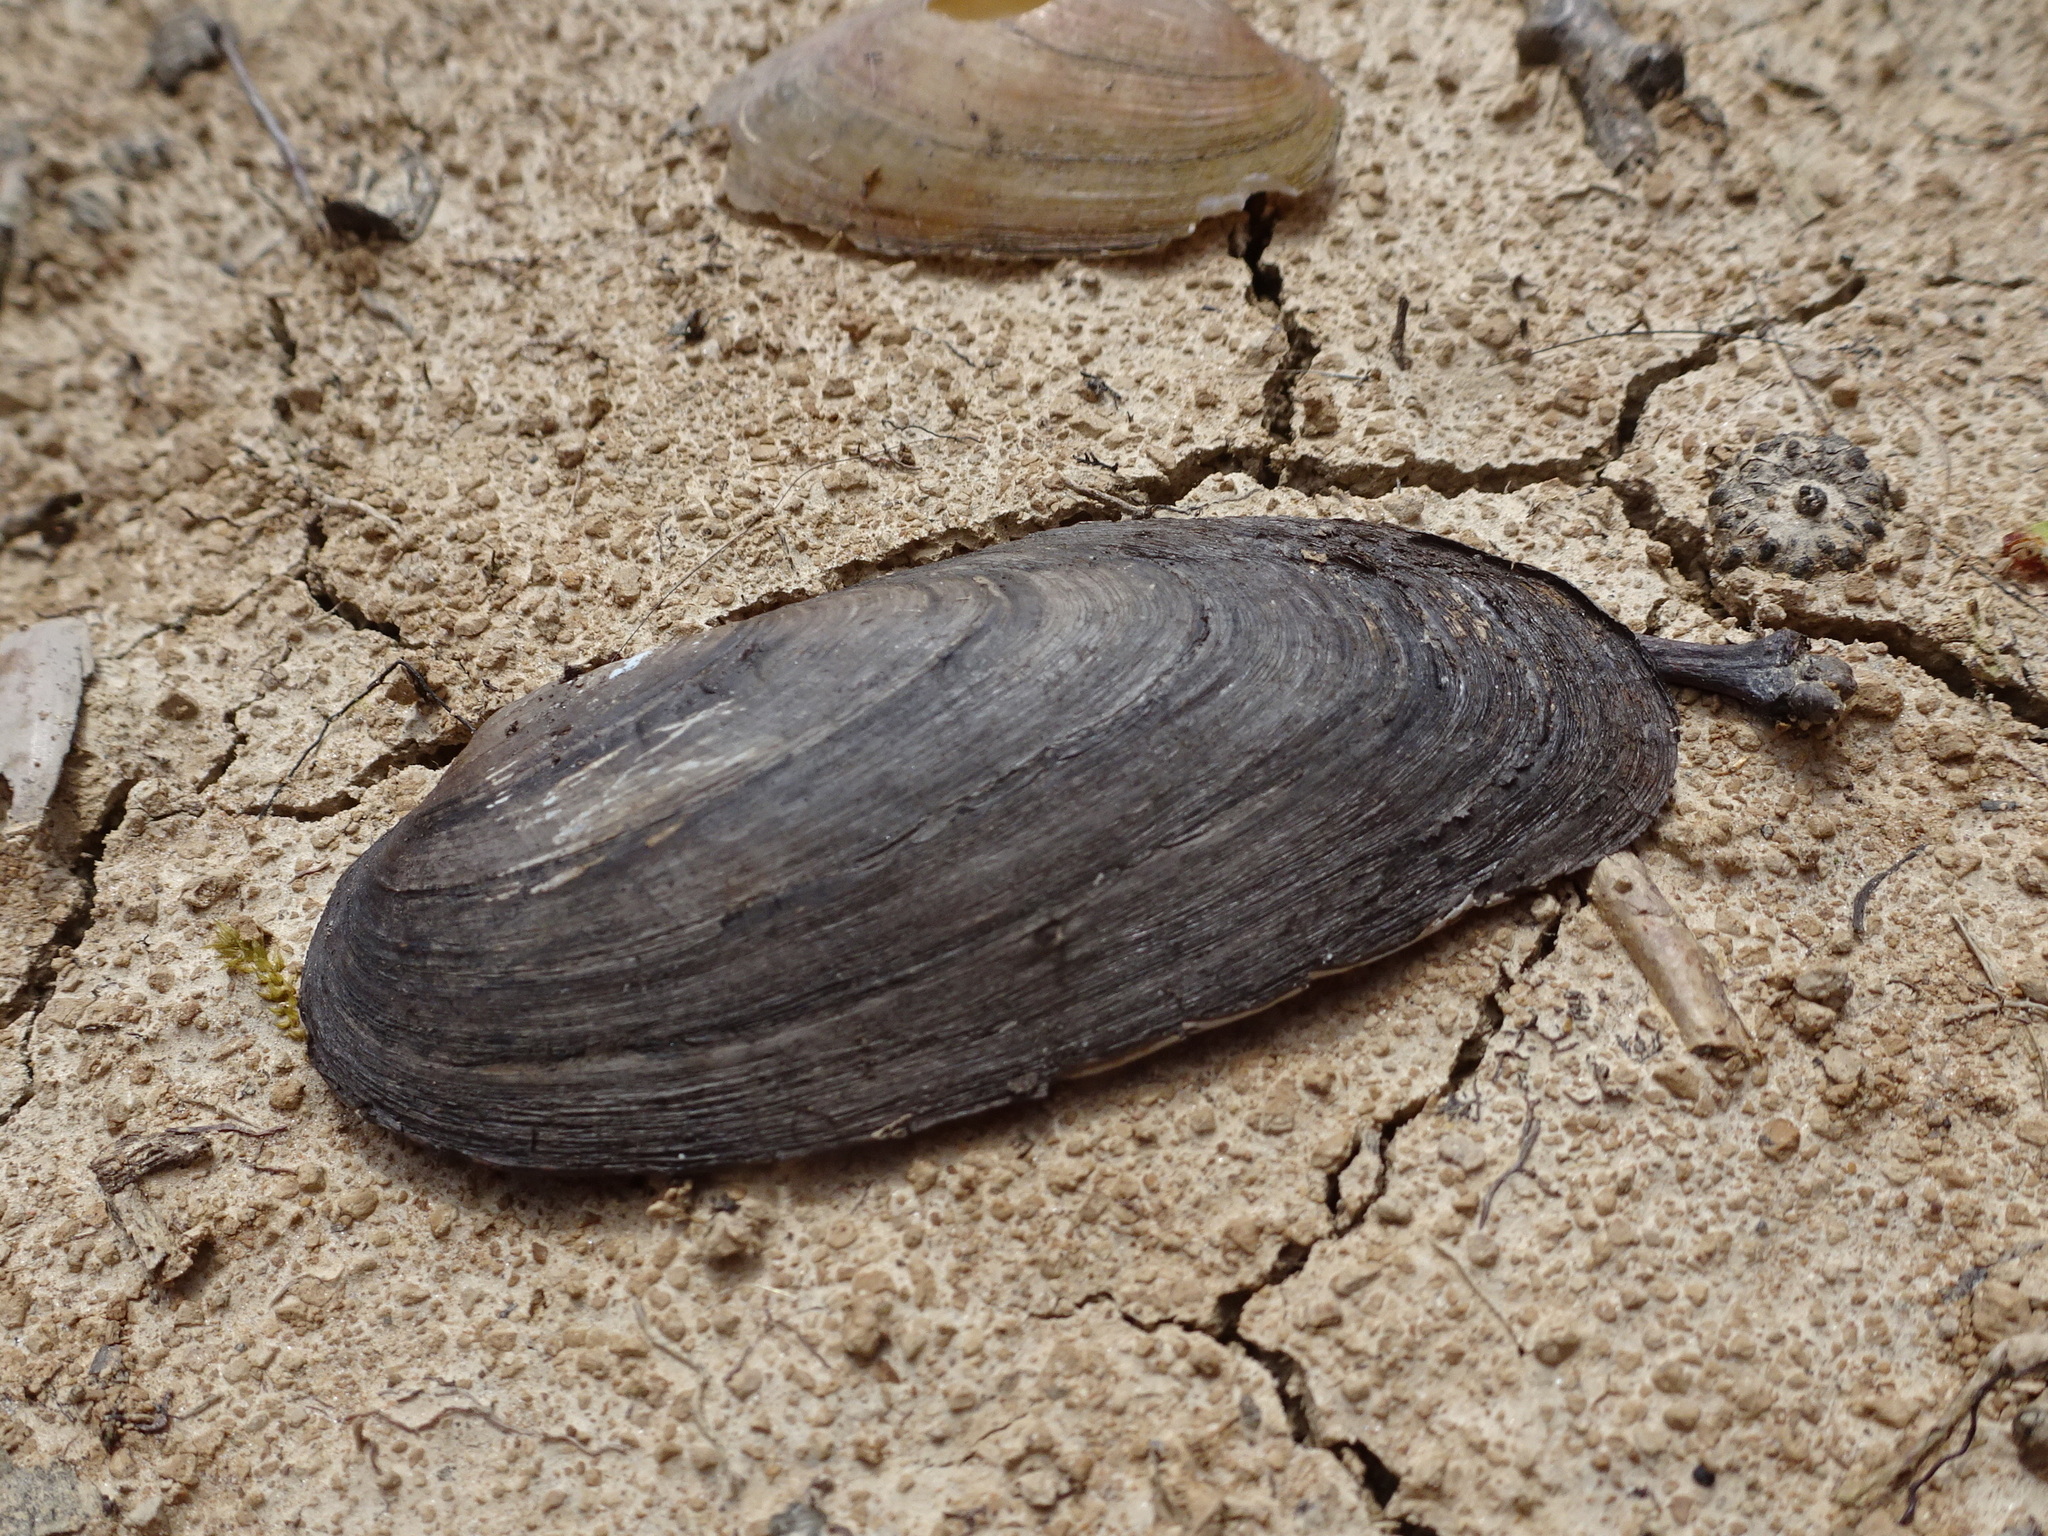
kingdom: Animalia
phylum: Mollusca
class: Bivalvia
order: Unionida
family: Unionidae
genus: Eurynia
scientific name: Eurynia dilatata
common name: Spike
